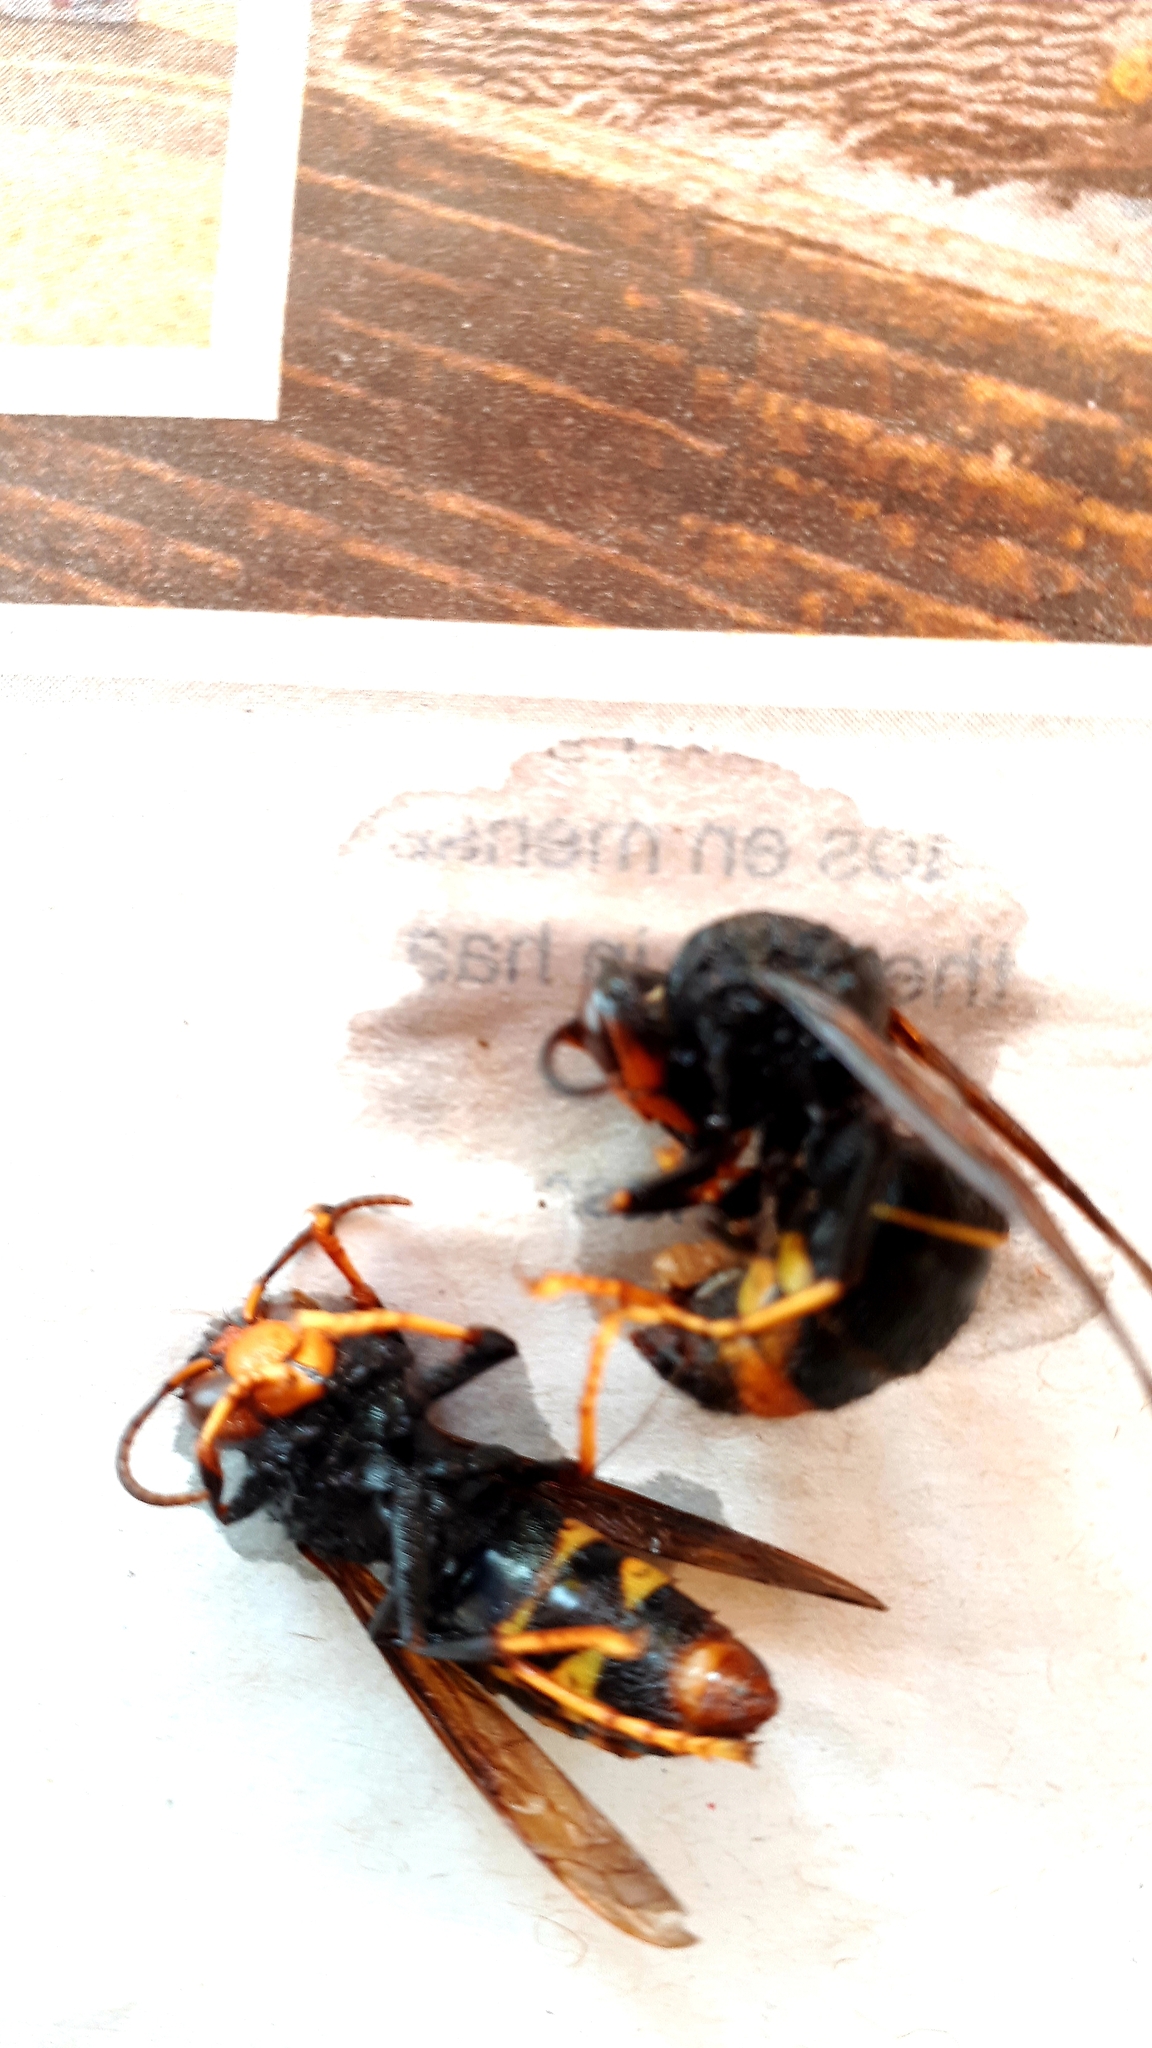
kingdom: Animalia
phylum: Arthropoda
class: Insecta
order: Hymenoptera
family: Vespidae
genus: Vespa
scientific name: Vespa velutina
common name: Asian hornet
